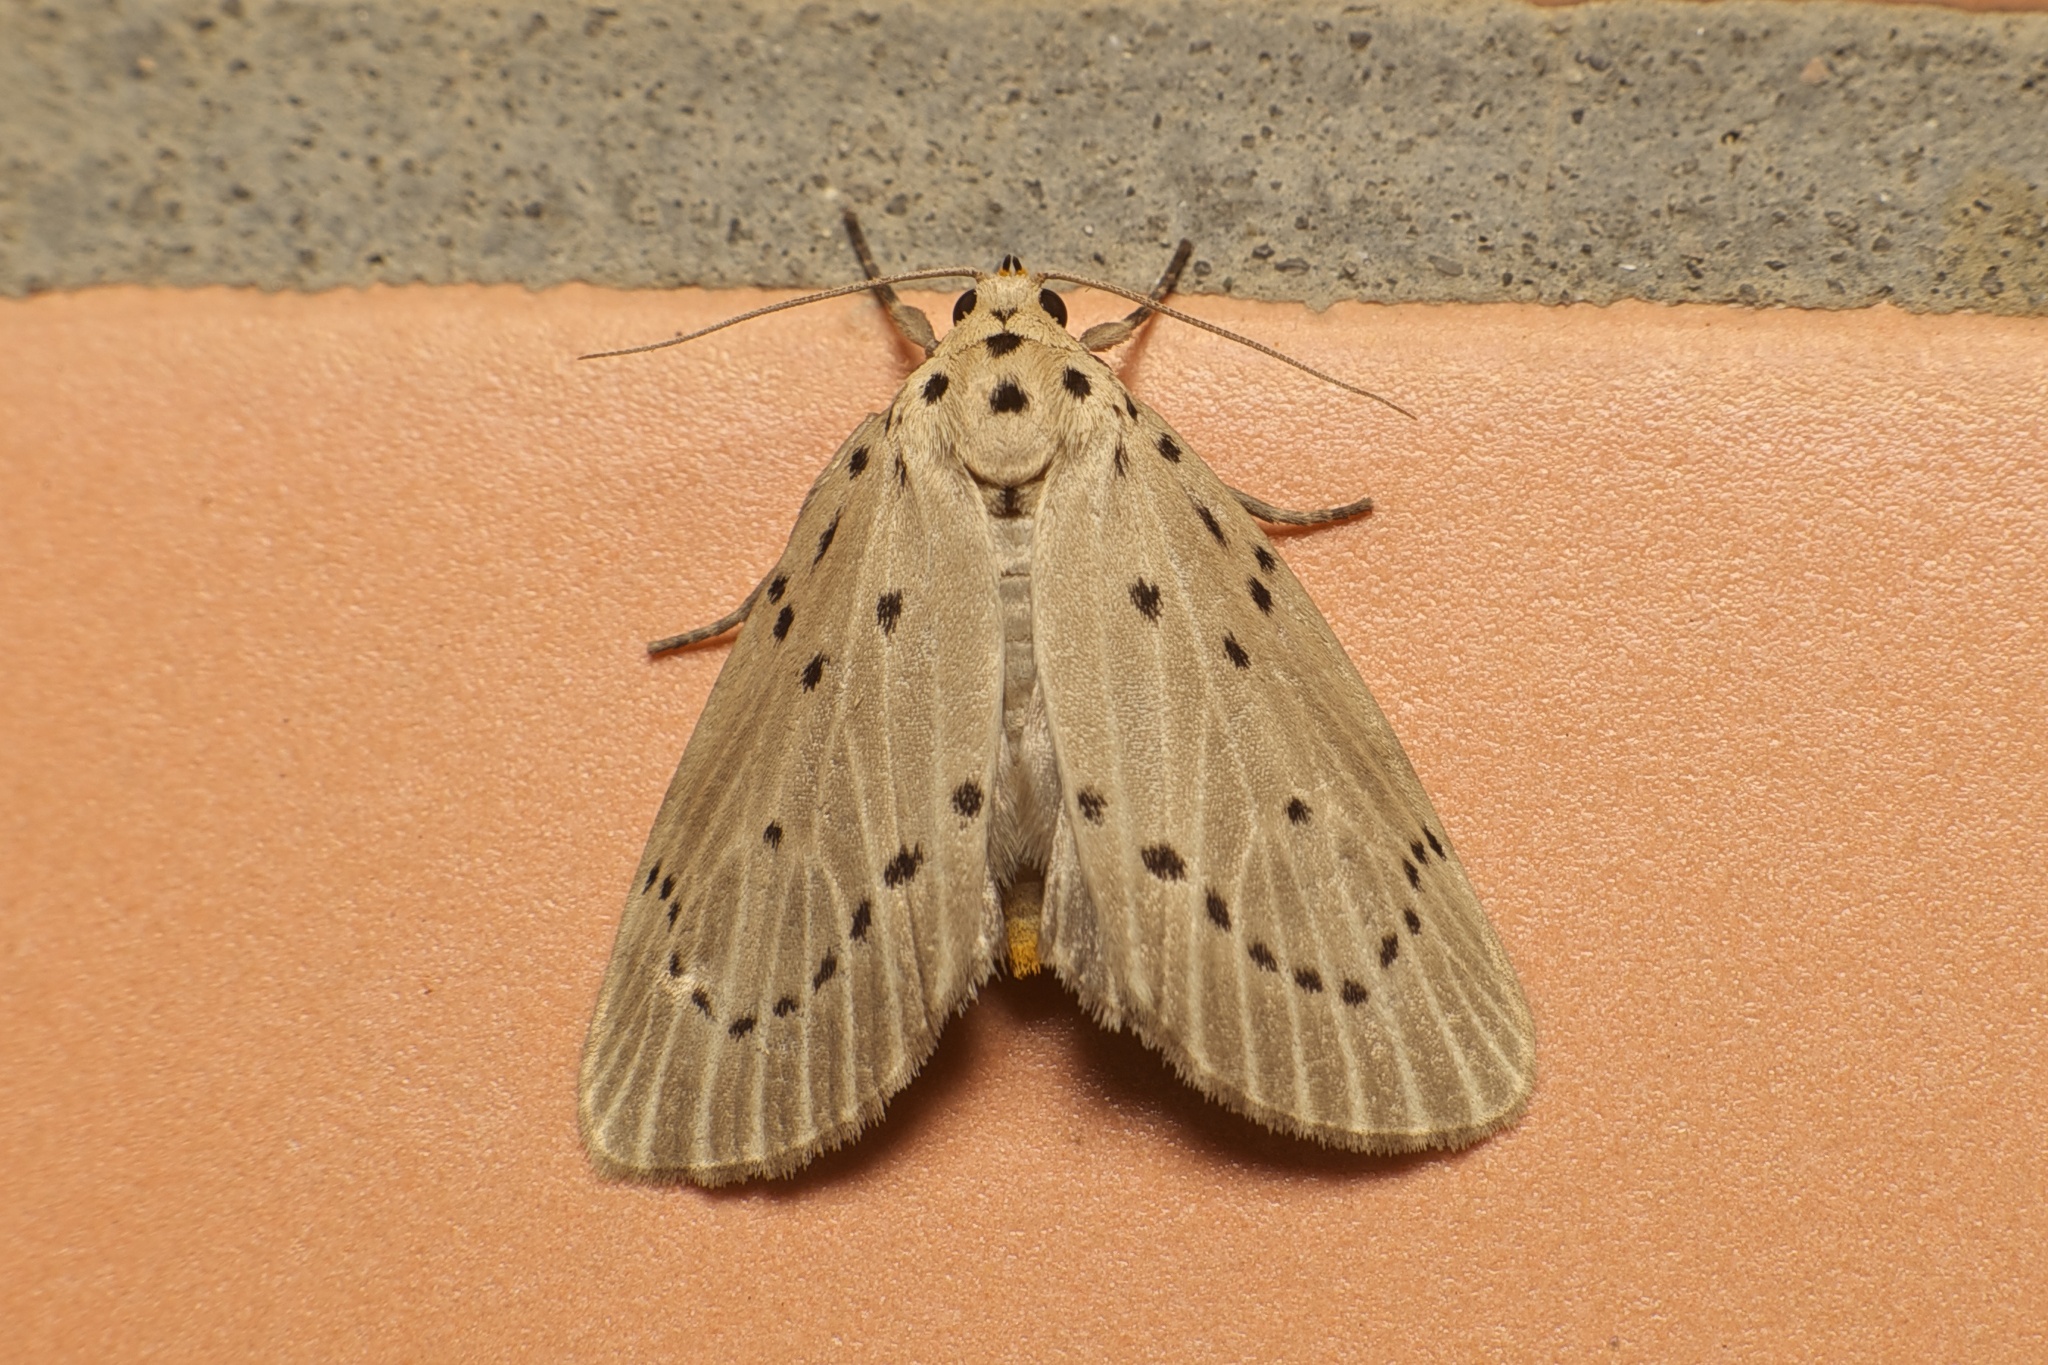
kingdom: Animalia
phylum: Arthropoda
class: Insecta
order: Lepidoptera
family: Erebidae
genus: Baroa
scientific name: Baroa vatala
